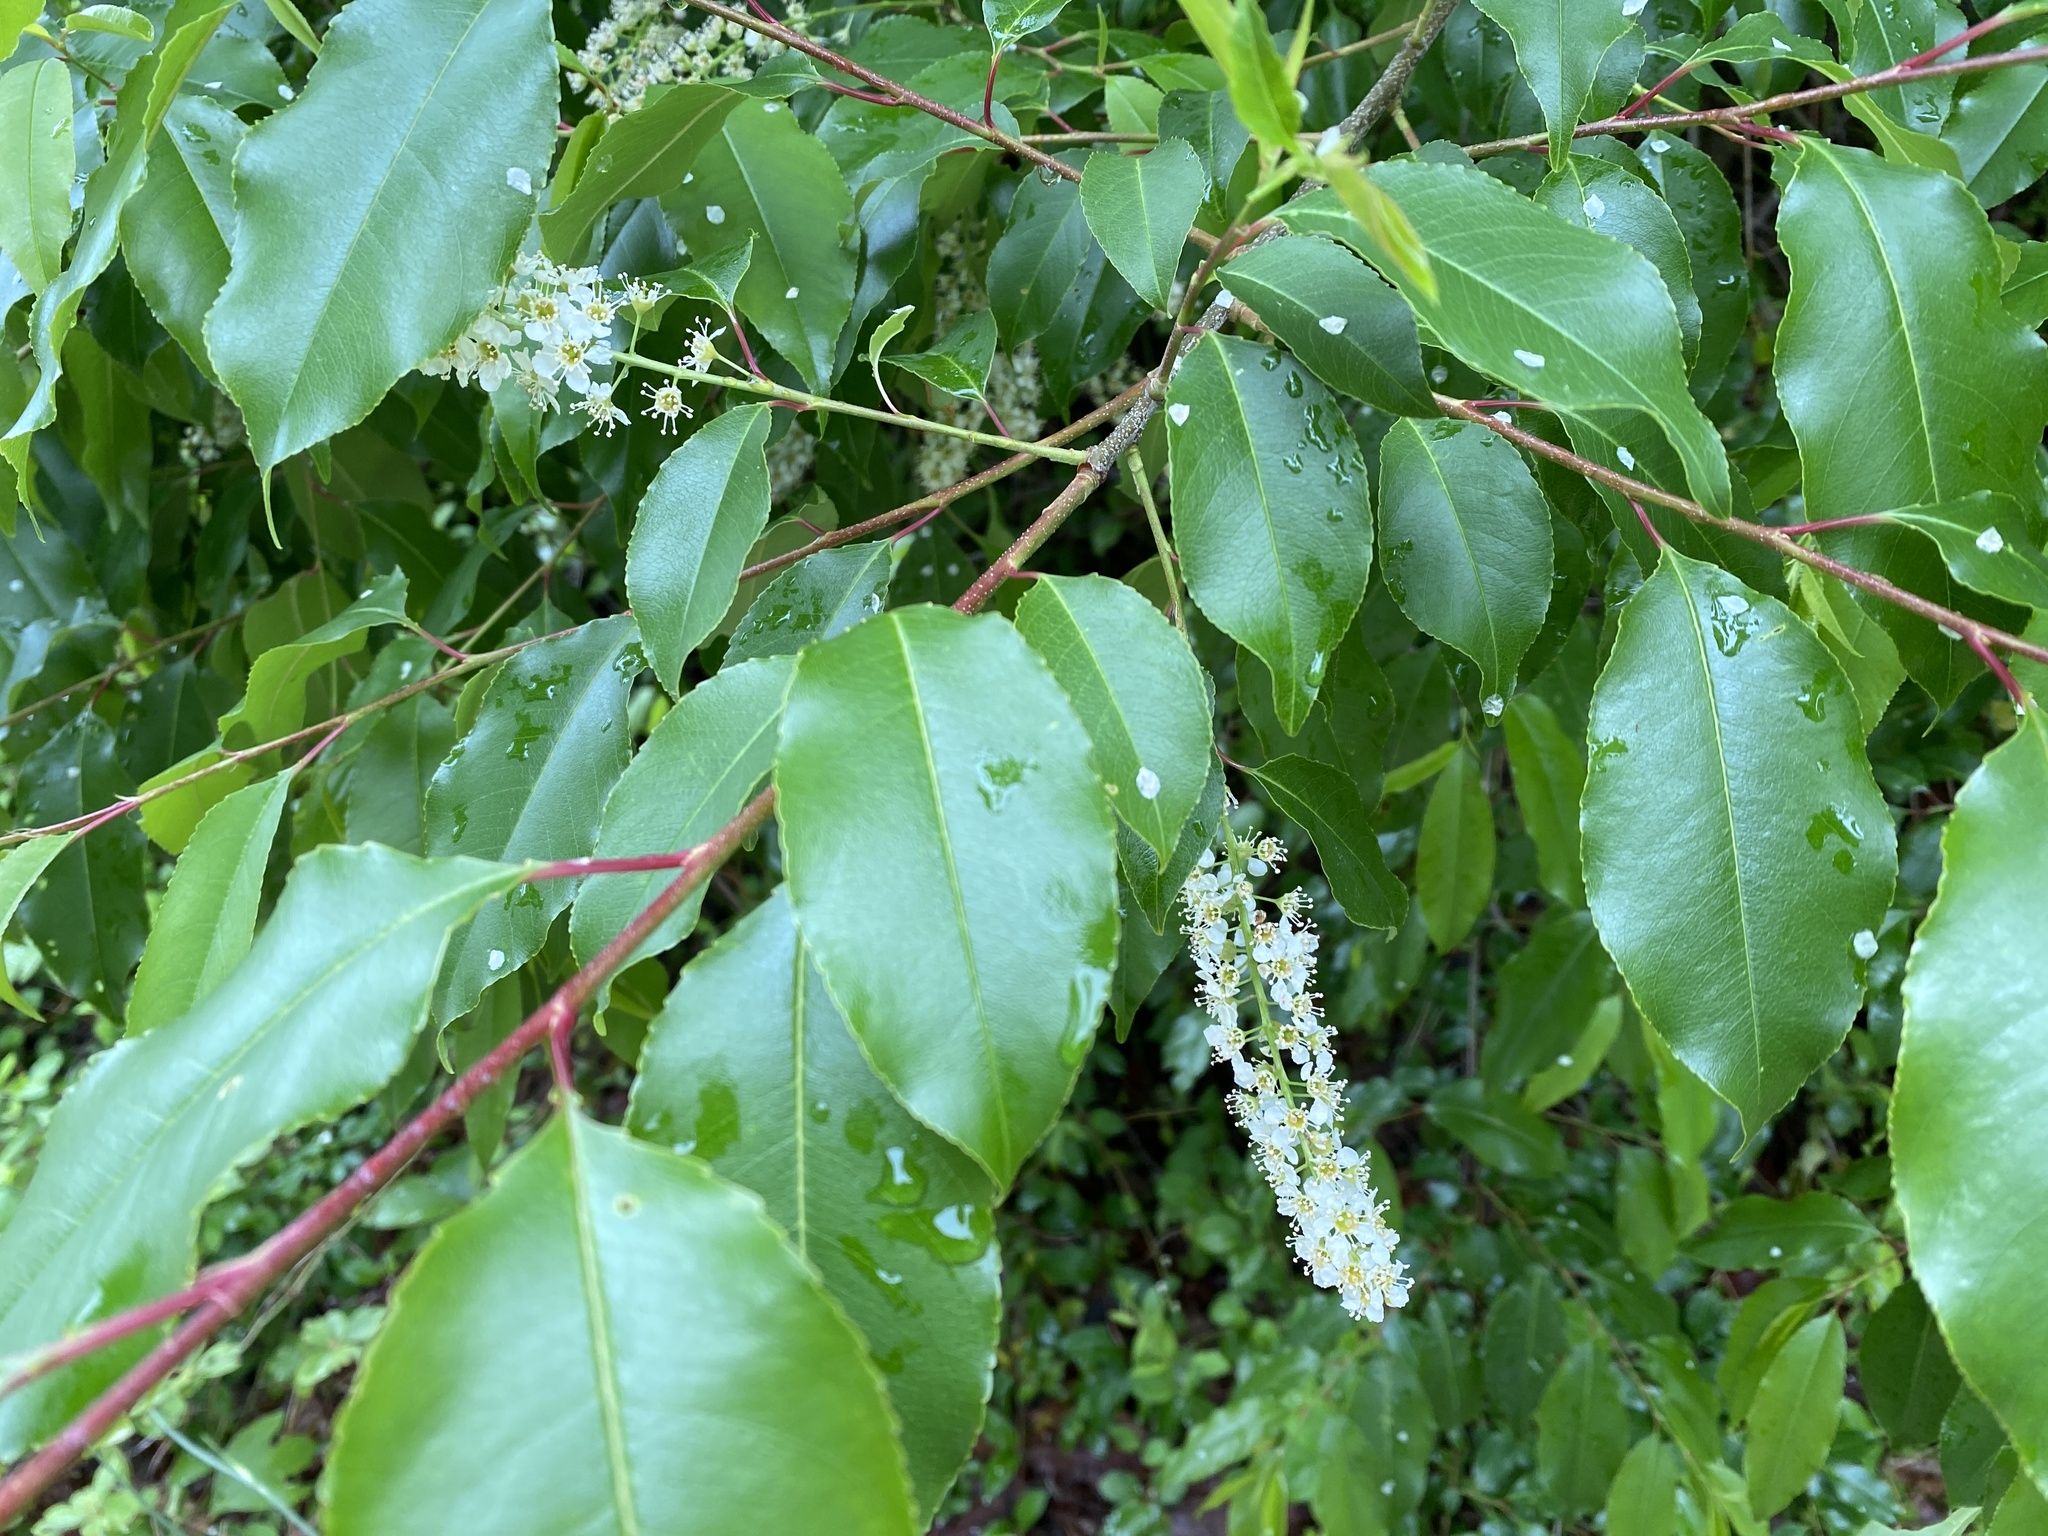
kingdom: Plantae
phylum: Tracheophyta
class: Magnoliopsida
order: Rosales
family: Rosaceae
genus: Prunus
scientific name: Prunus serotina
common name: Black cherry
